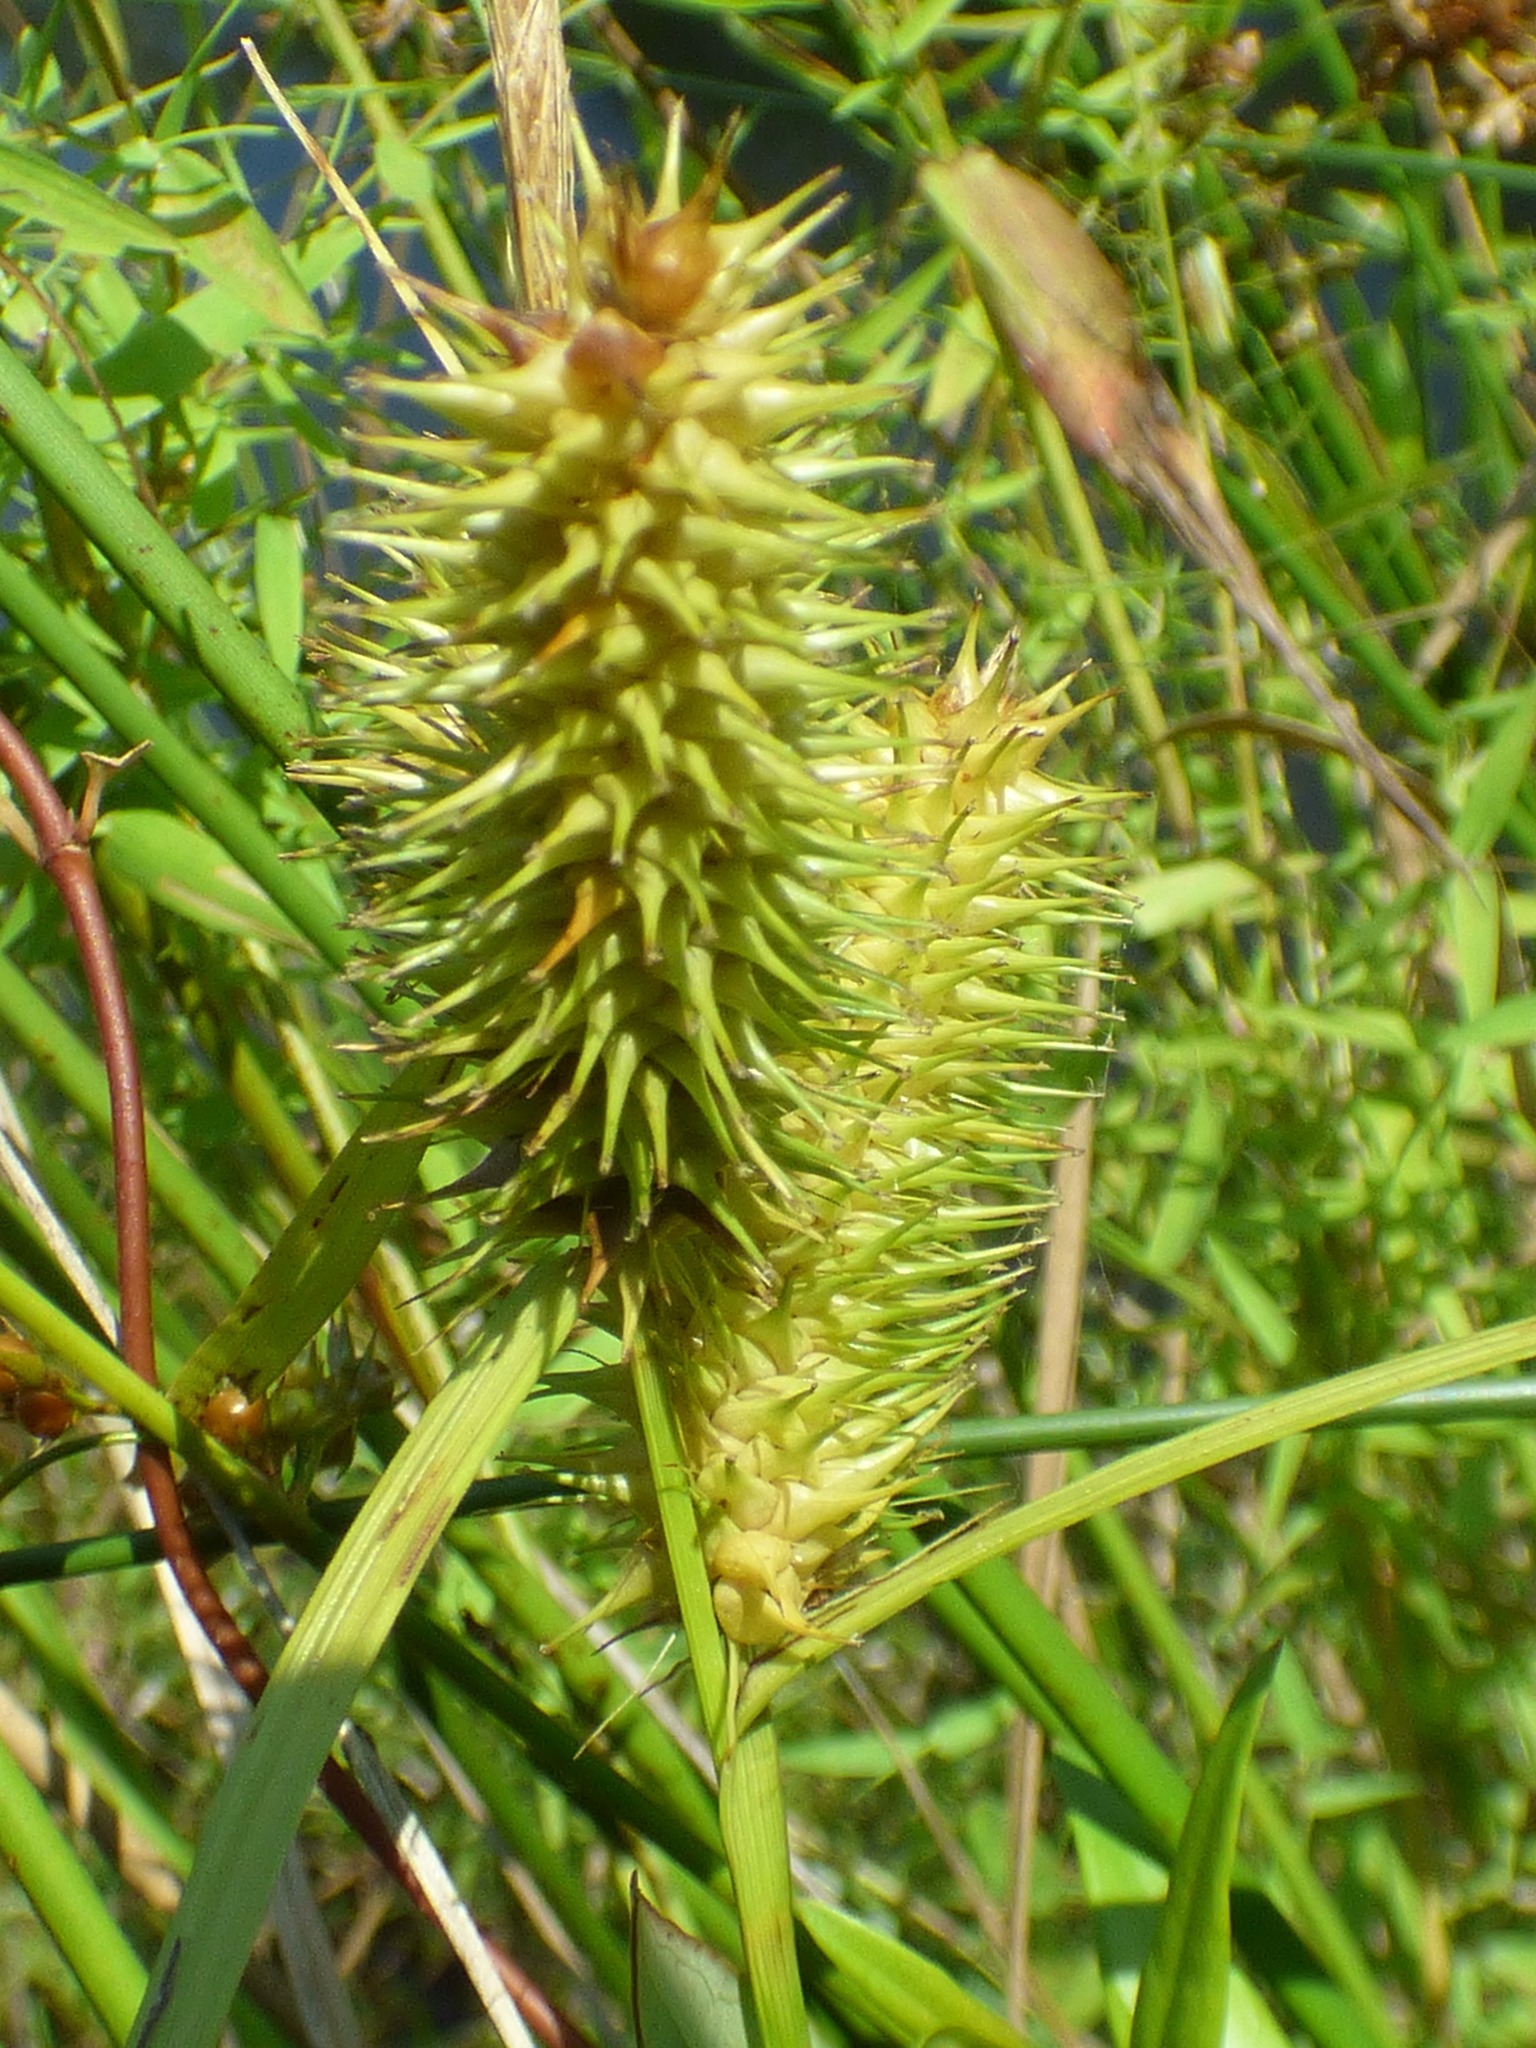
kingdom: Plantae
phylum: Tracheophyta
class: Liliopsida
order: Poales
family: Cyperaceae
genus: Carex
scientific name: Carex lurida
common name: Sallow sedge
